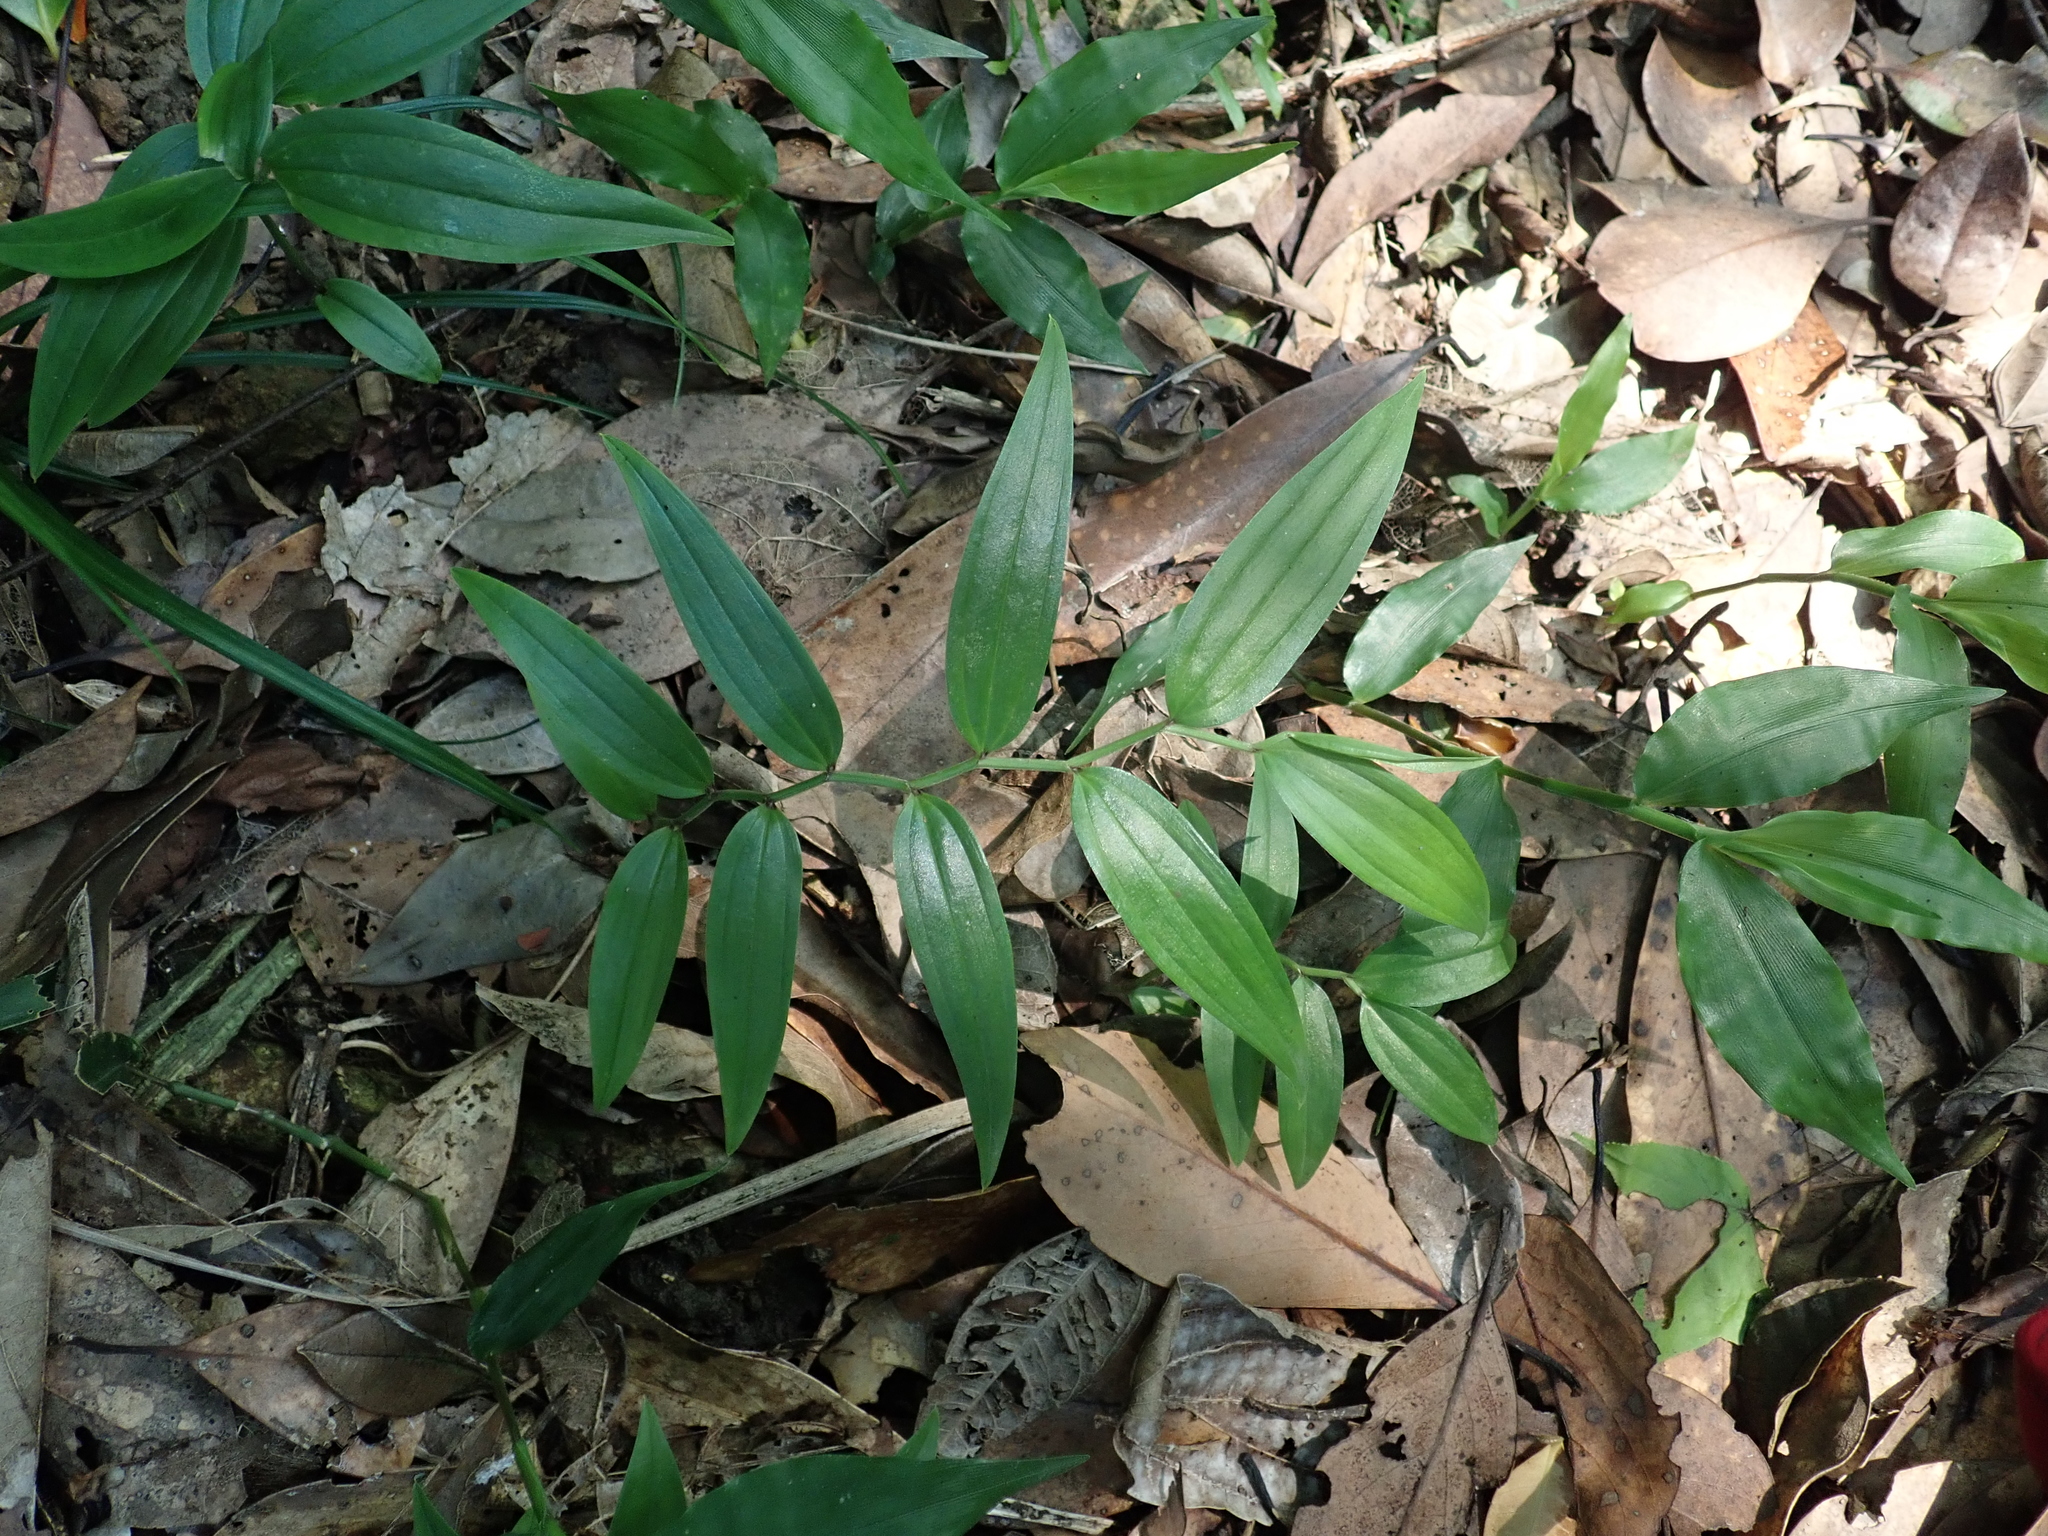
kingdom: Plantae
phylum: Tracheophyta
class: Liliopsida
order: Liliales
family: Colchicaceae
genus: Disporum
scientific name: Disporum shimadae
